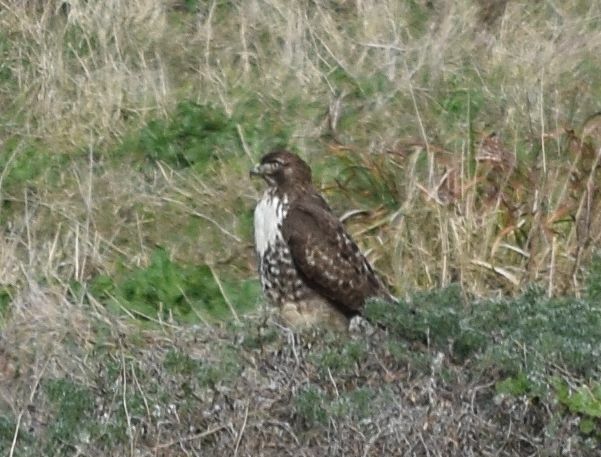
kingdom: Animalia
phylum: Chordata
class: Aves
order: Accipitriformes
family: Accipitridae
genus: Buteo
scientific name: Buteo jamaicensis
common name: Red-tailed hawk
